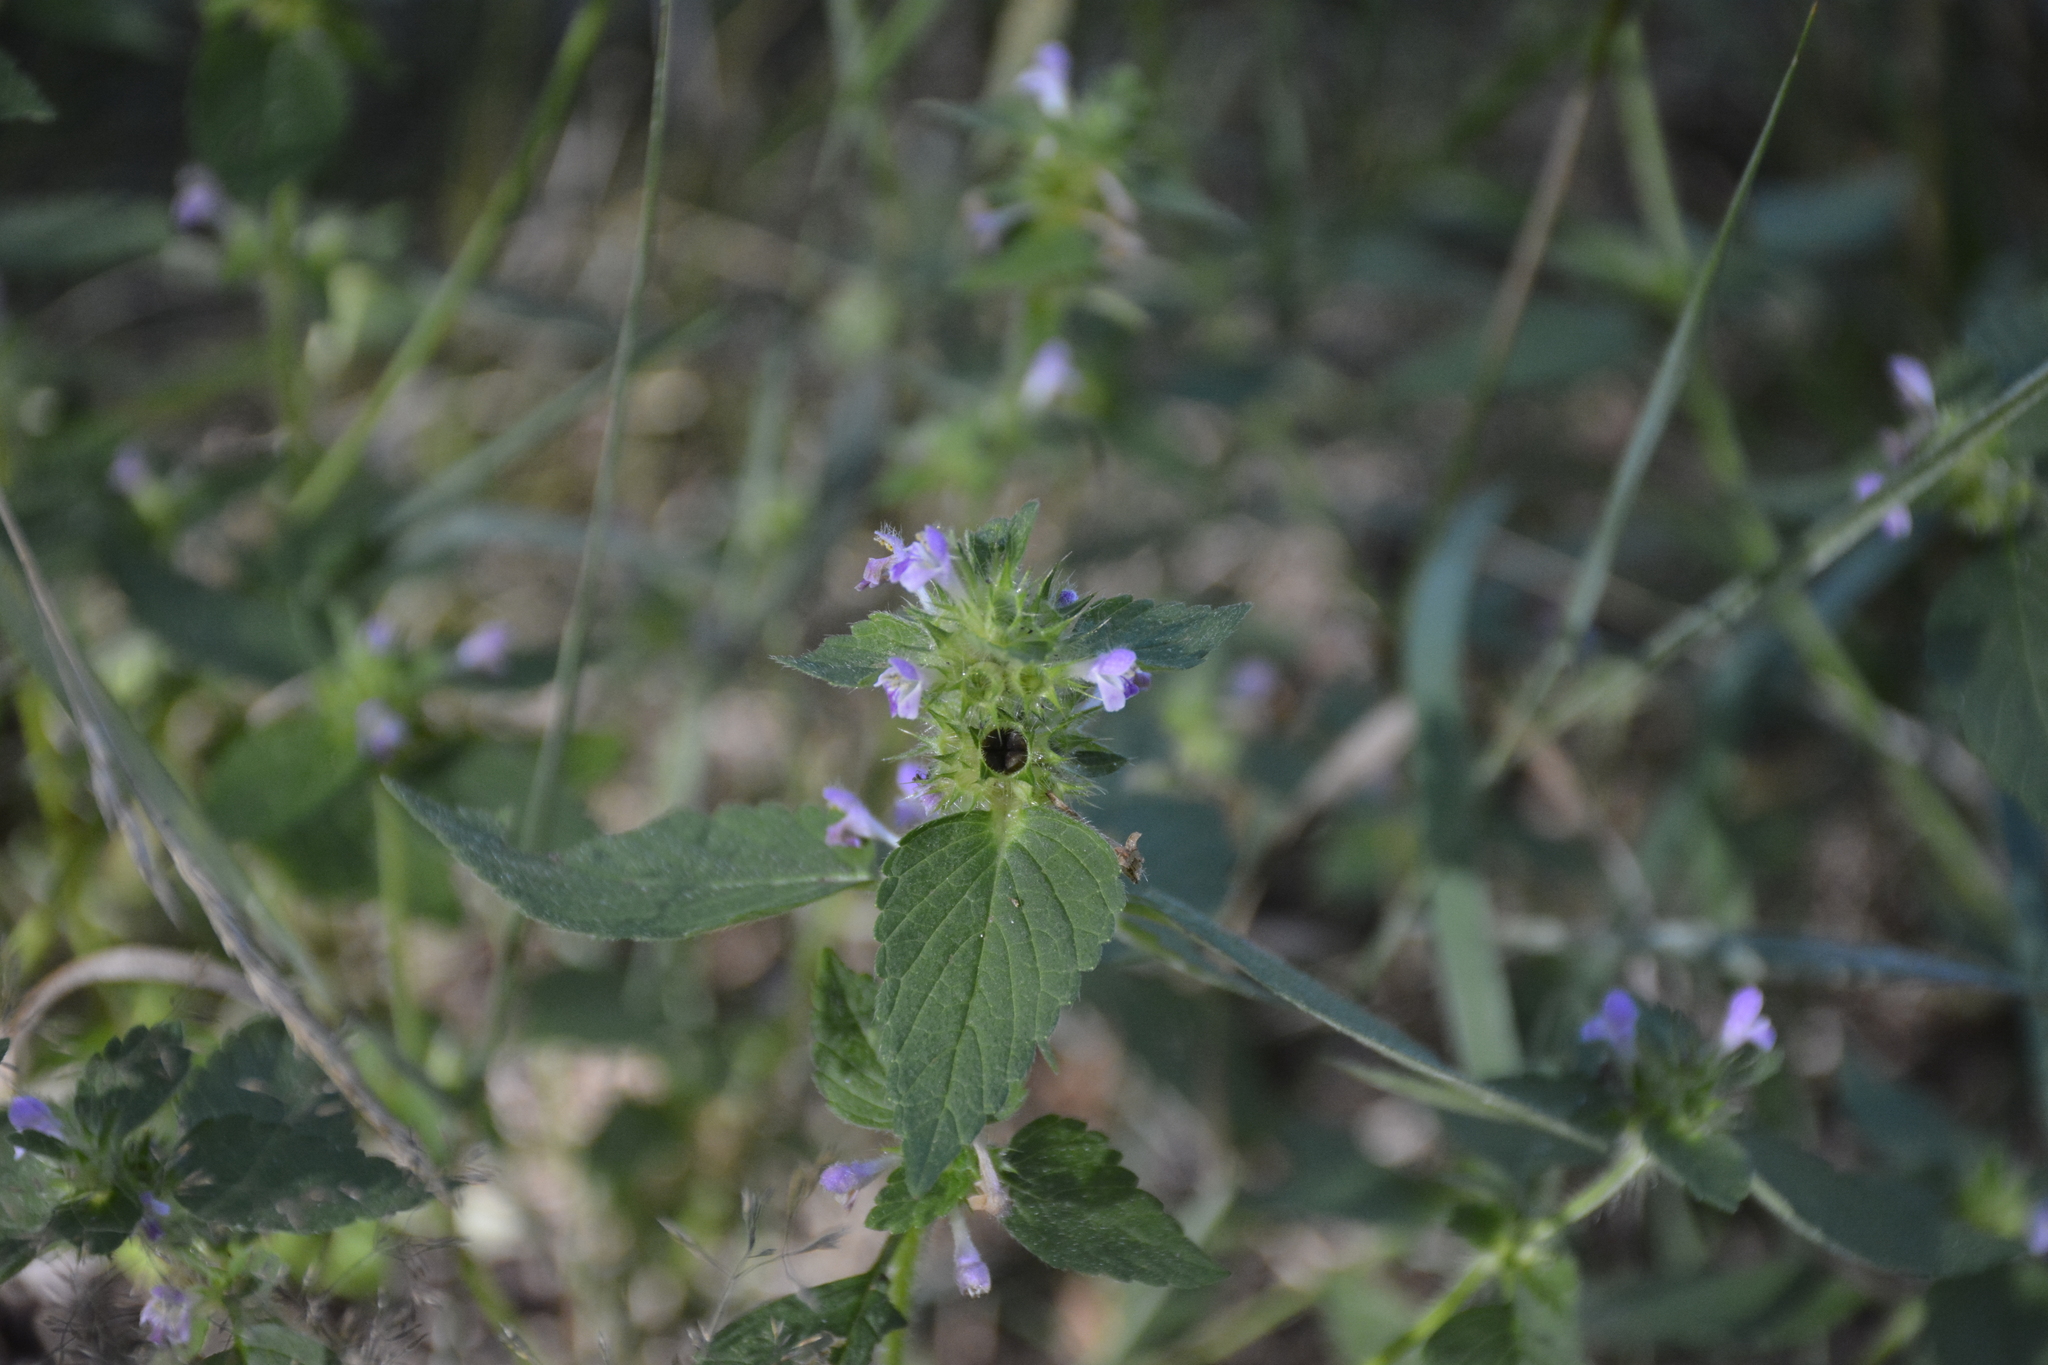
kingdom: Plantae
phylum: Tracheophyta
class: Magnoliopsida
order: Lamiales
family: Lamiaceae
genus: Galeopsis
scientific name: Galeopsis bifida
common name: Bifid hemp-nettle
